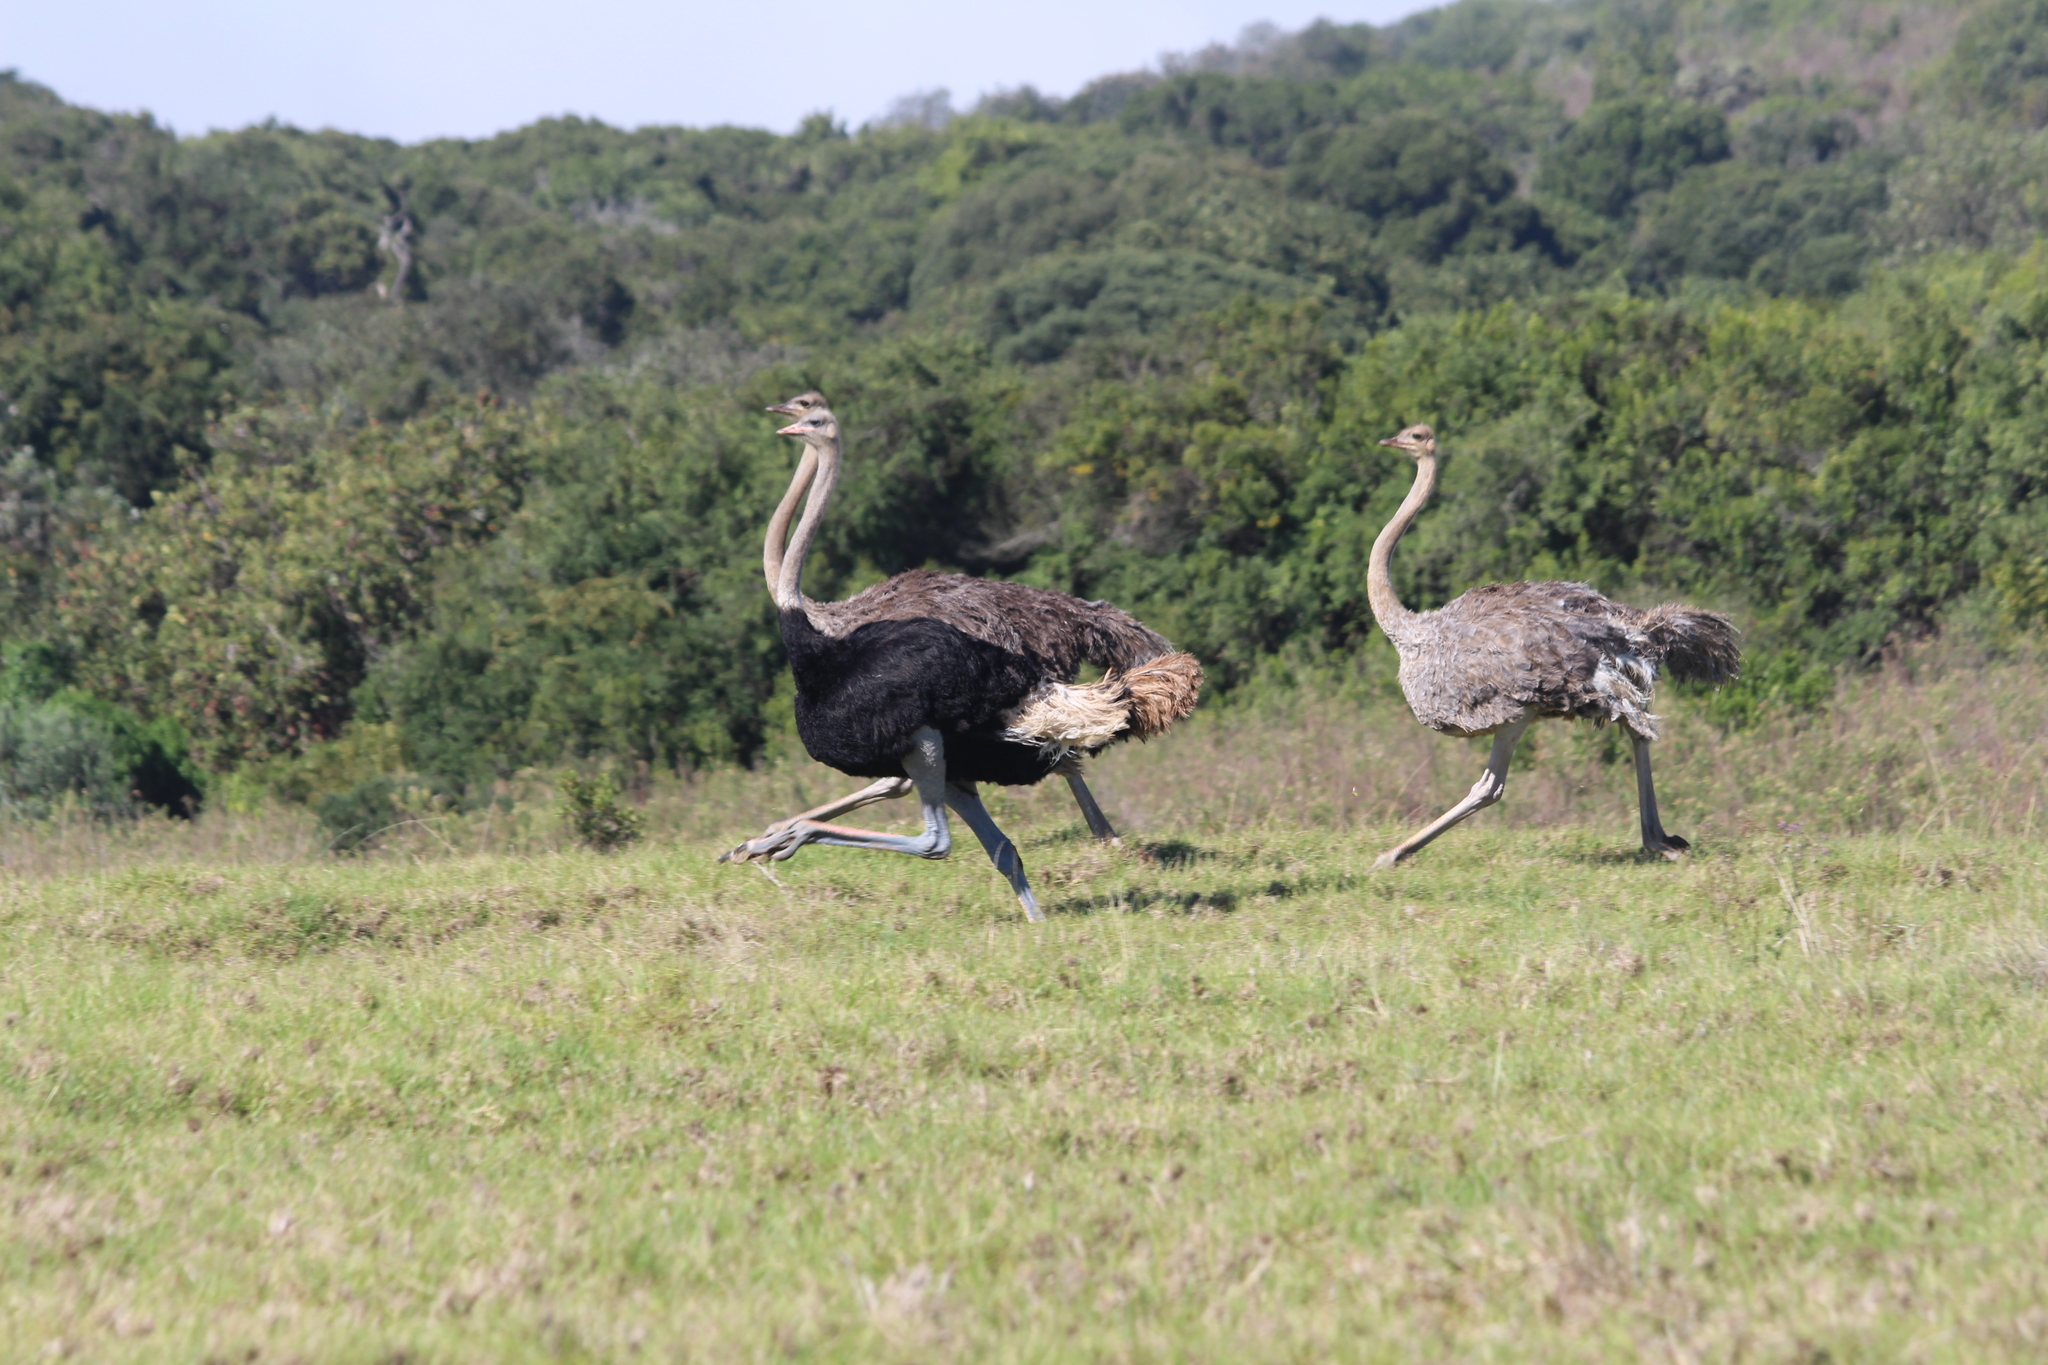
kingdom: Animalia
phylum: Chordata
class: Aves
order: Struthioniformes
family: Struthionidae
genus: Struthio
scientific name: Struthio camelus
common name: Common ostrich
